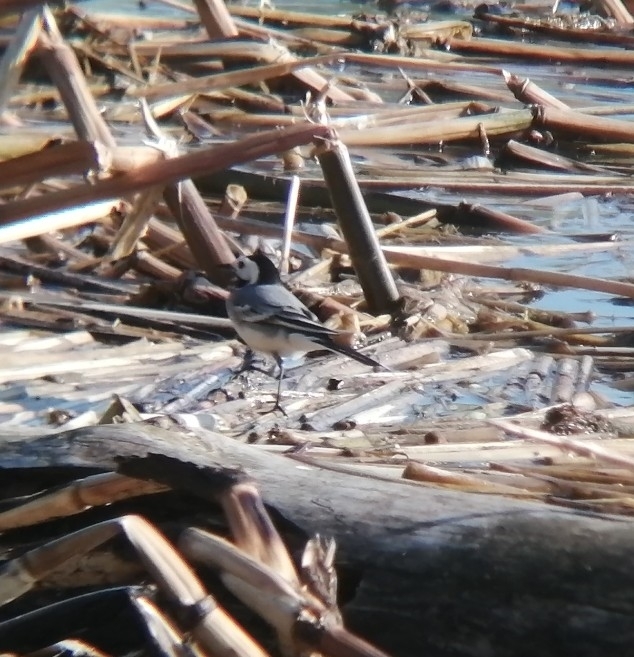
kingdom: Animalia
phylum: Chordata
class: Aves
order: Passeriformes
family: Motacillidae
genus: Motacilla
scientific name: Motacilla alba
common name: White wagtail
